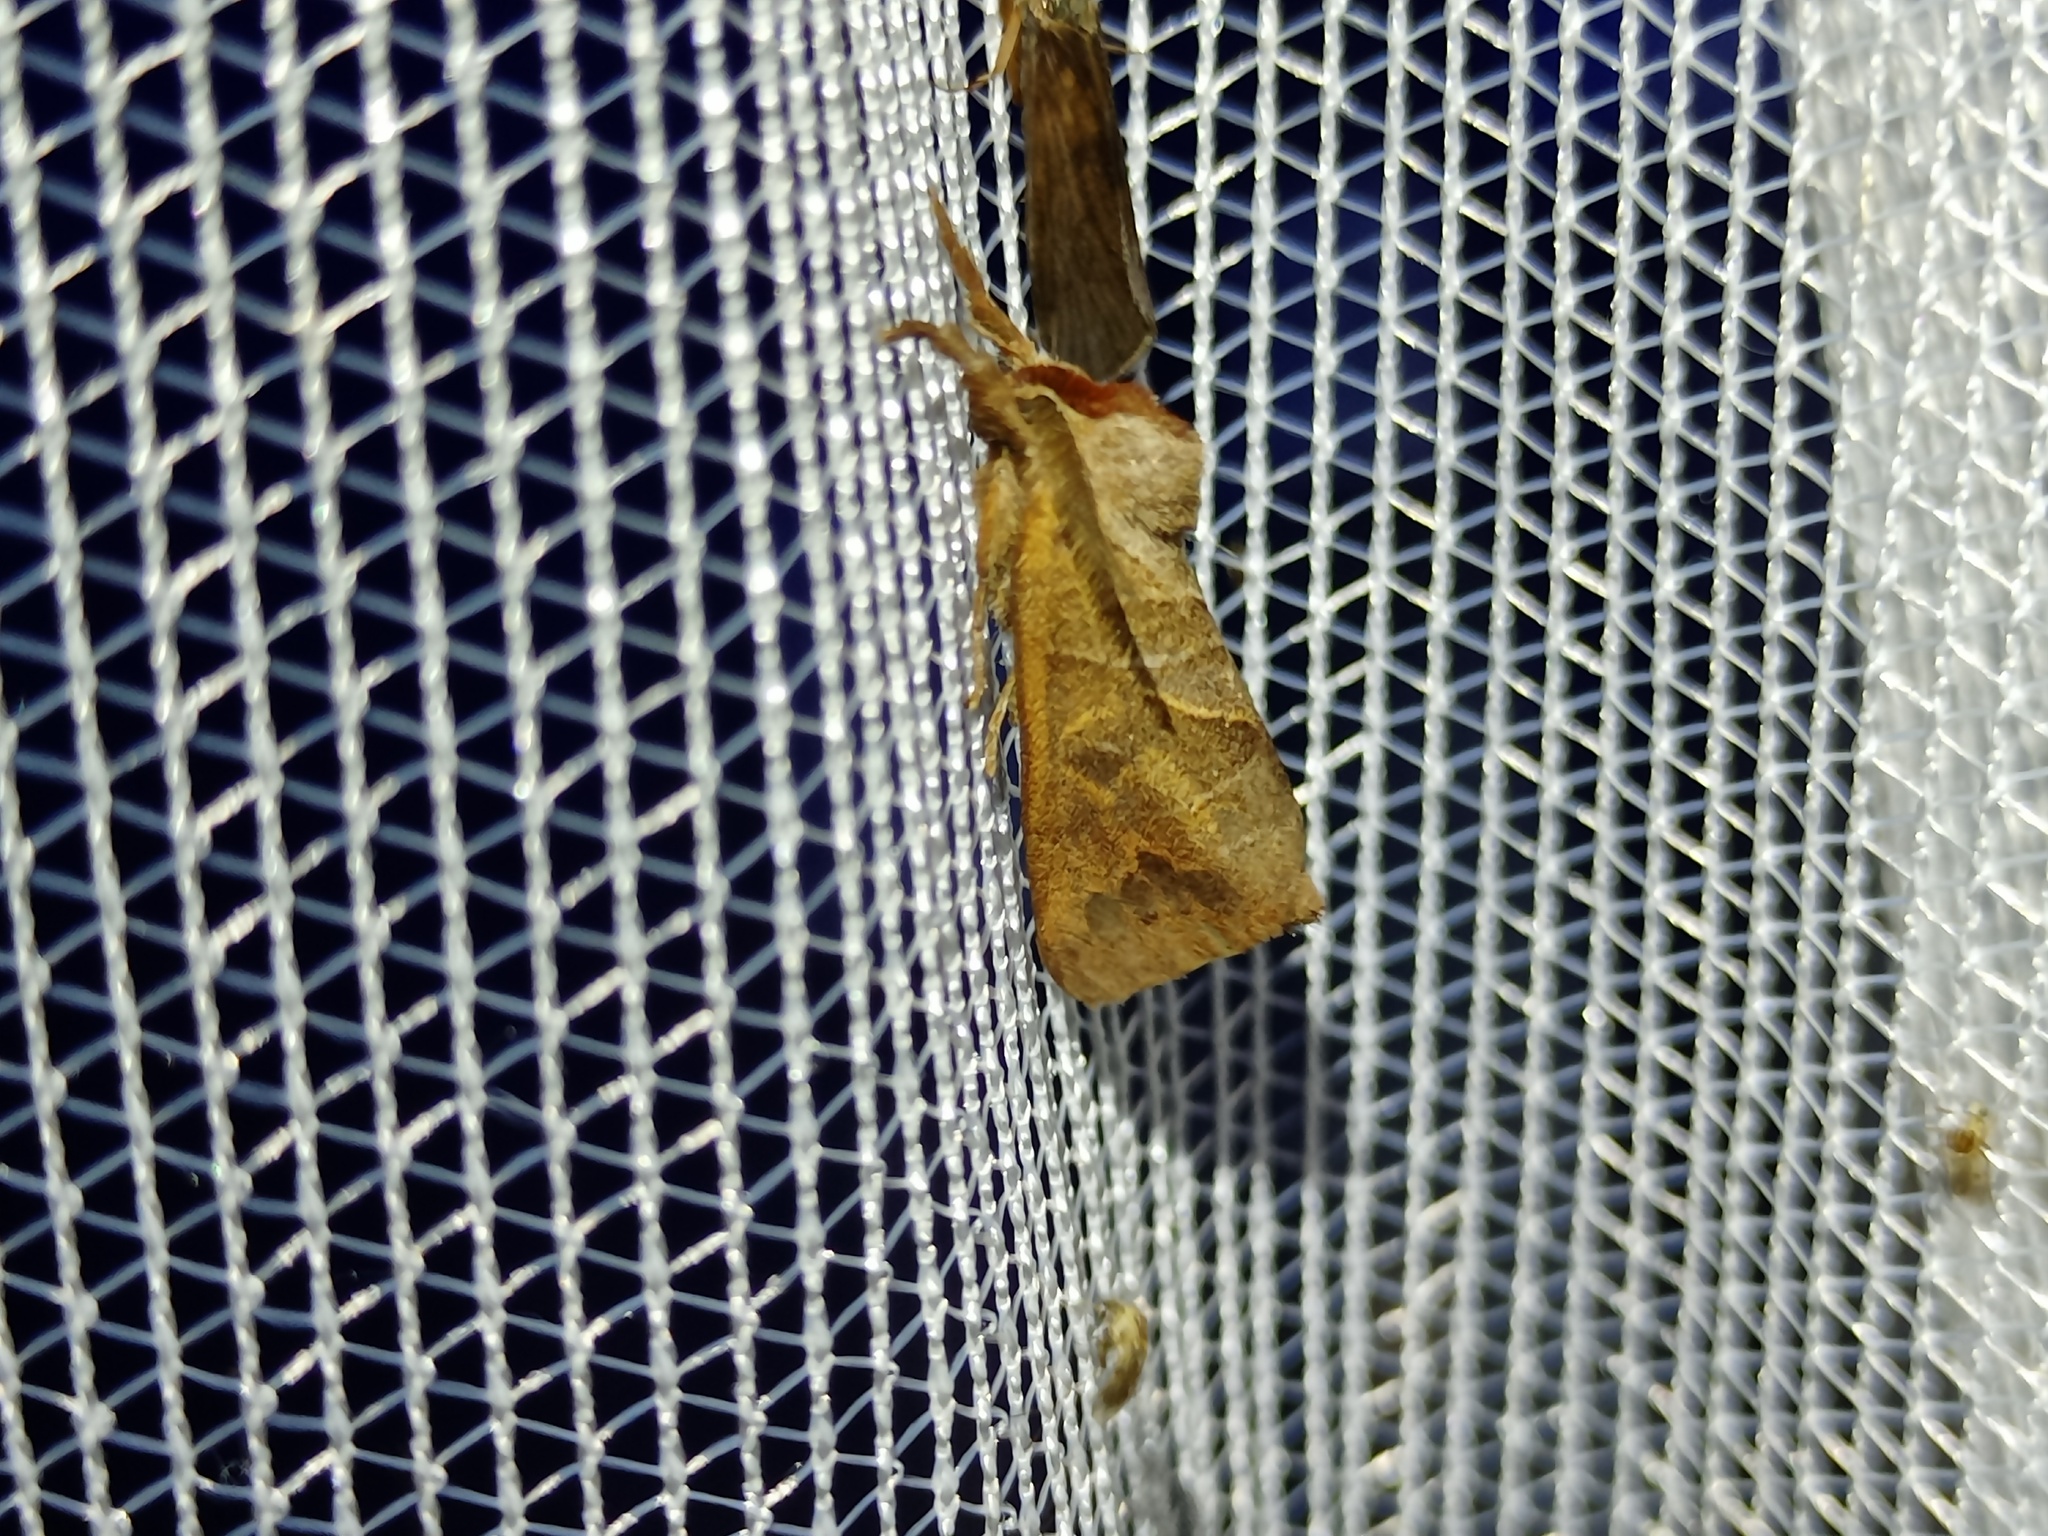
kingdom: Animalia
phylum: Arthropoda
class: Insecta
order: Lepidoptera
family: Notodontidae
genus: Clostera
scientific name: Clostera anastomosis
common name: Poplar tip moth
